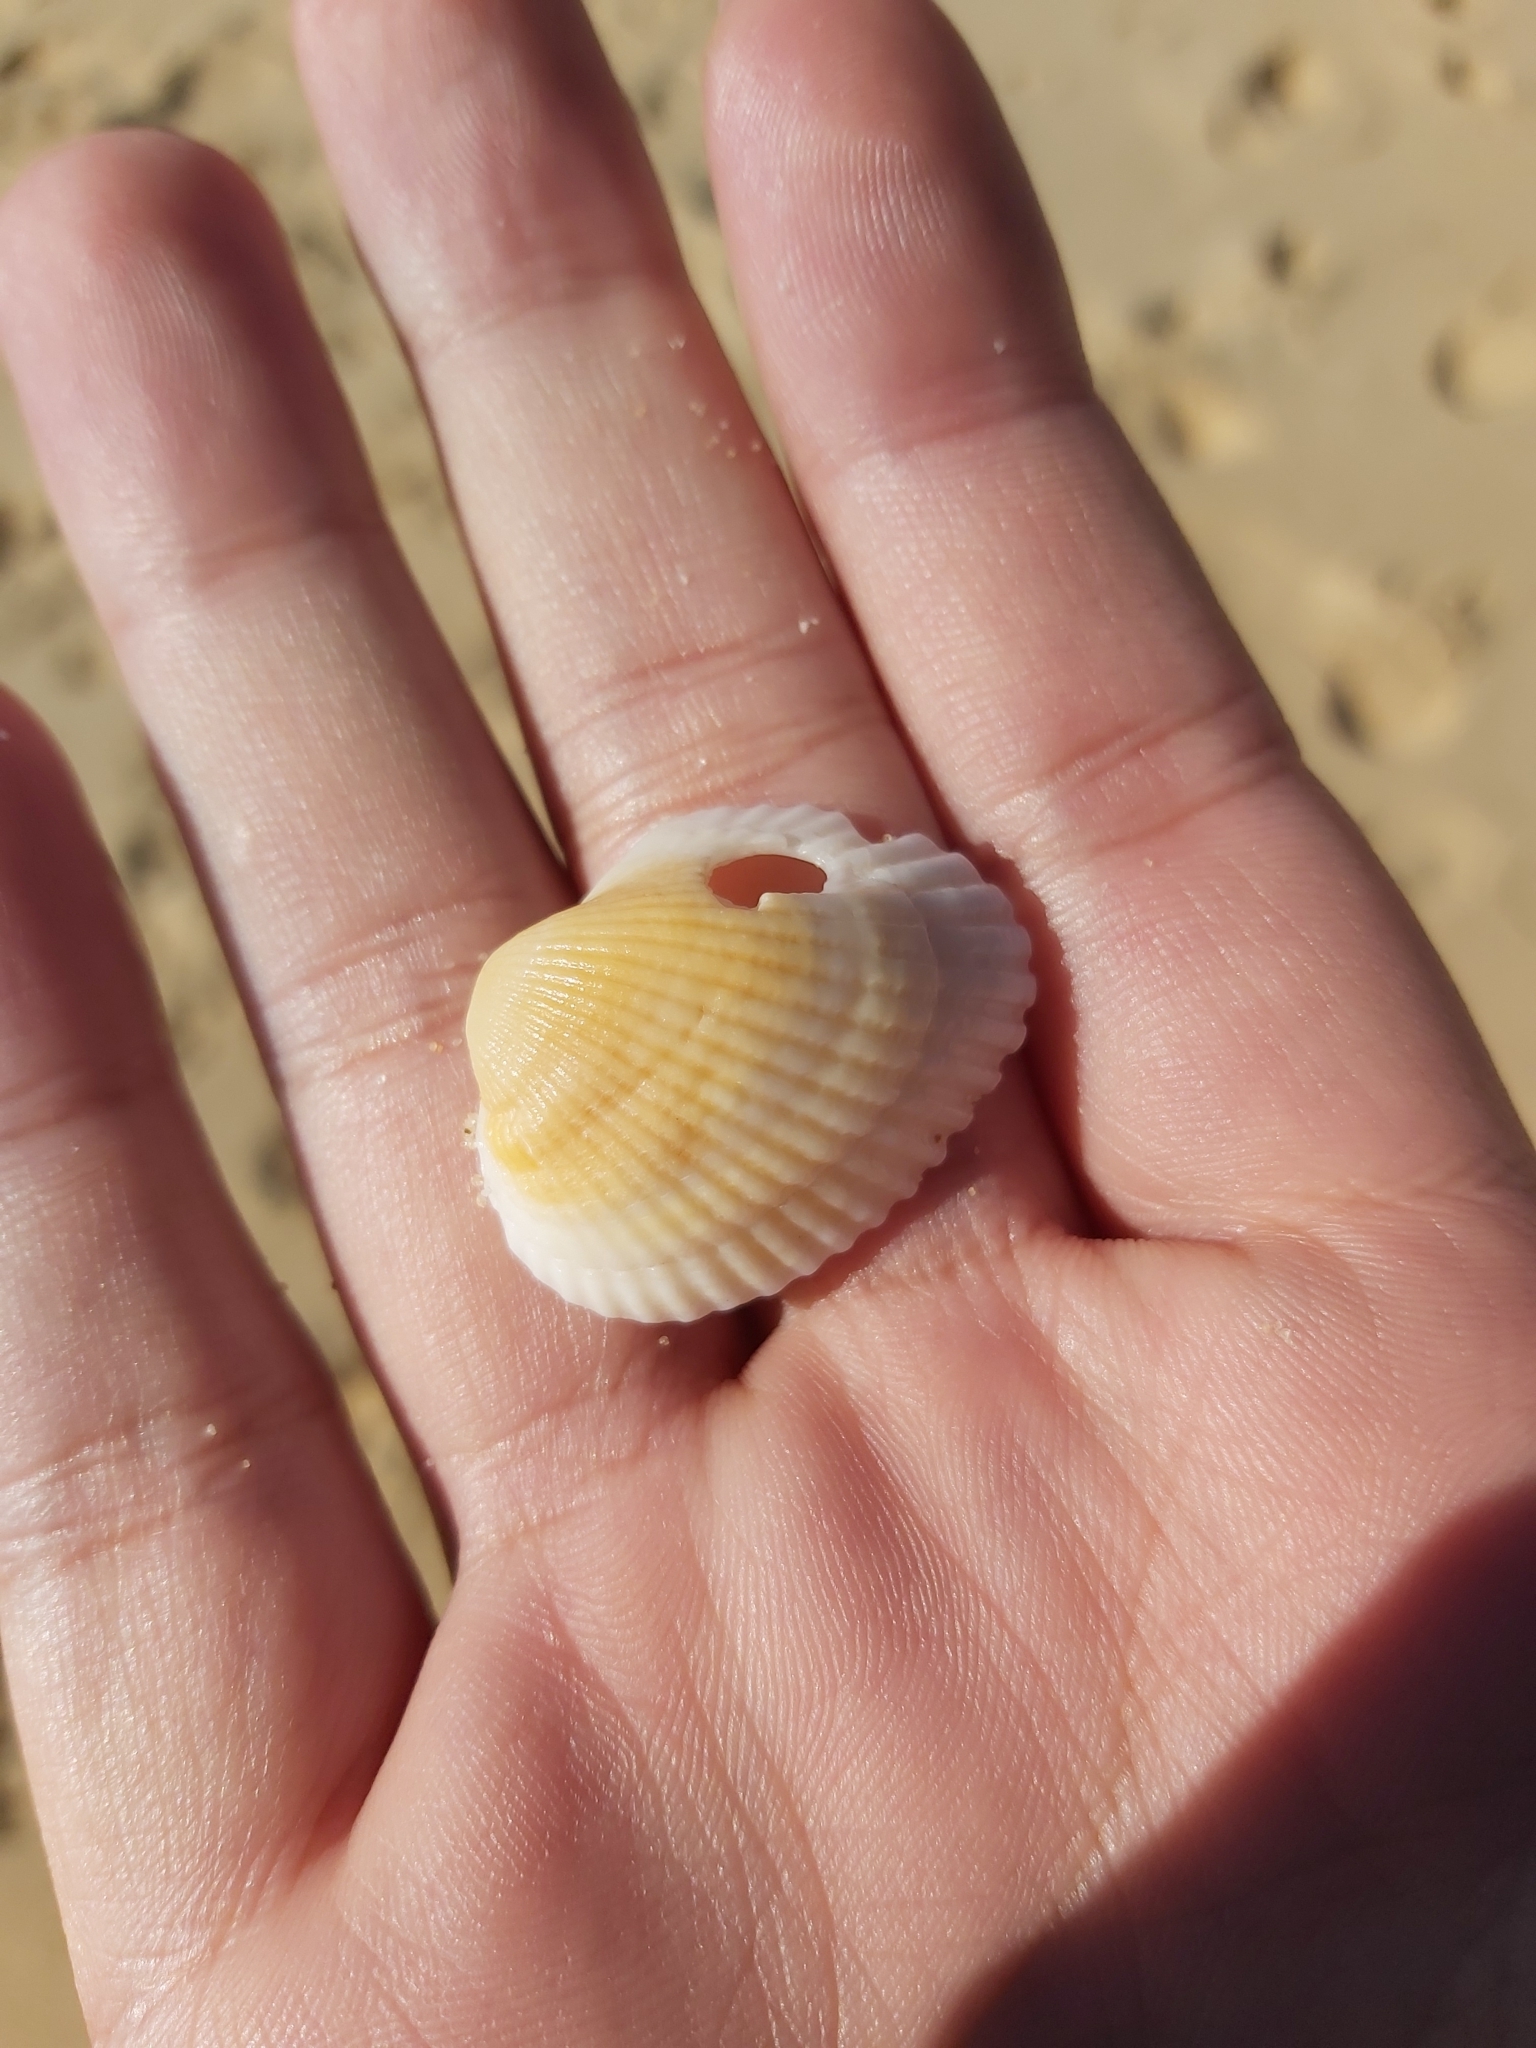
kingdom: Animalia
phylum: Mollusca
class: Bivalvia
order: Arcida
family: Arcidae
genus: Anadara
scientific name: Anadara trapezia
